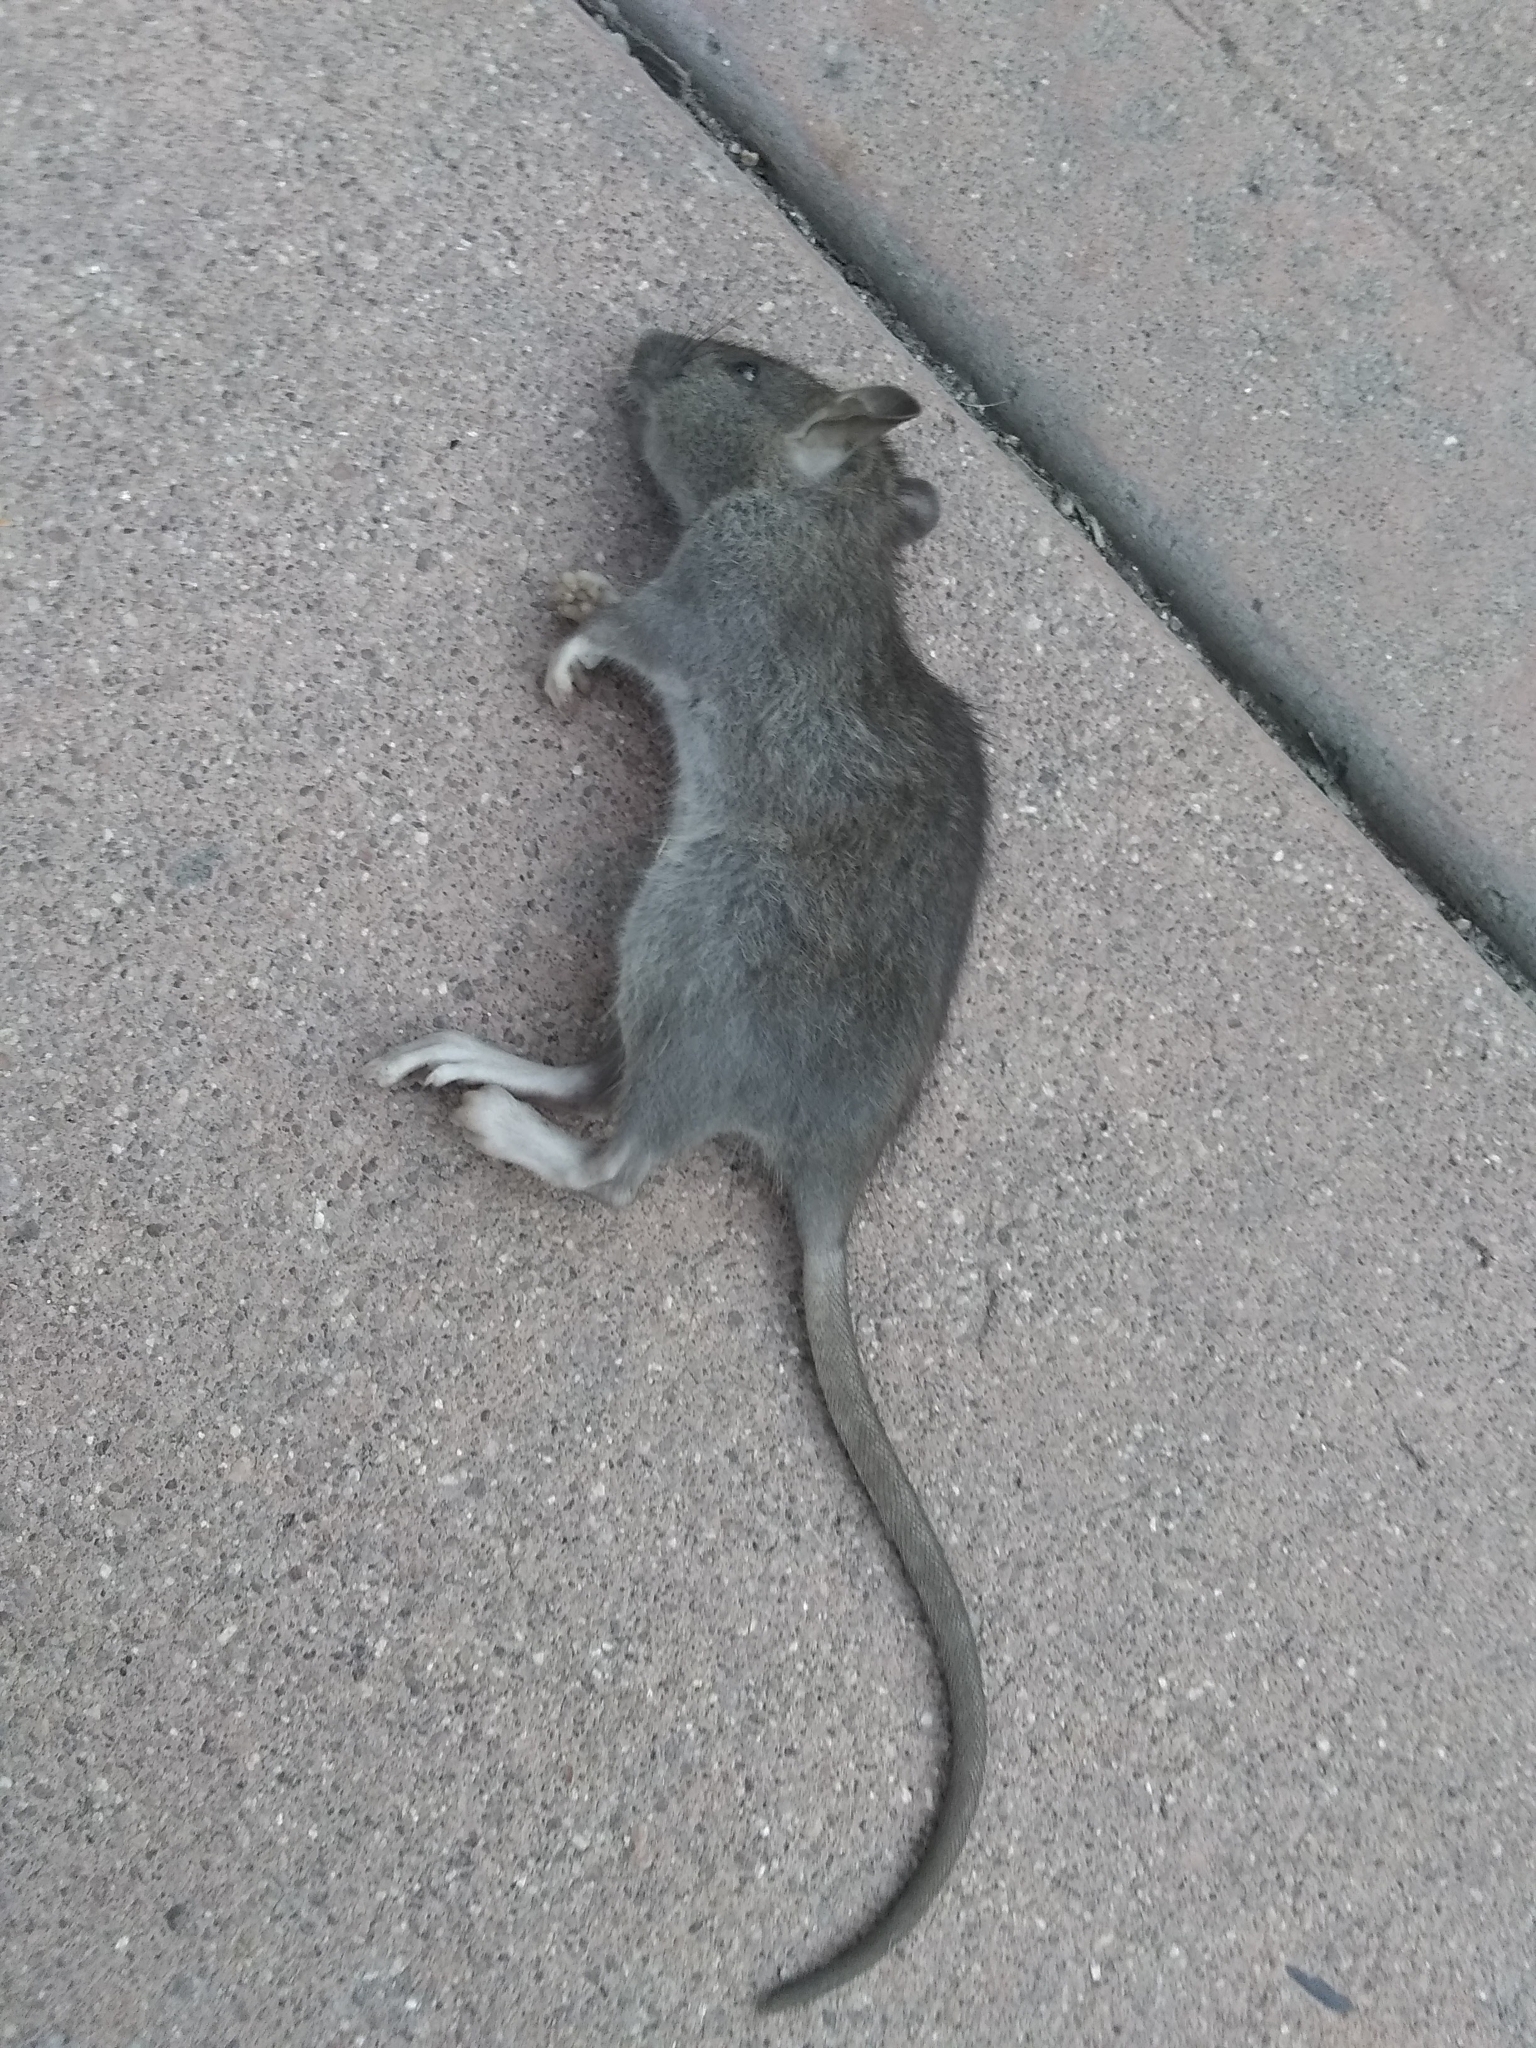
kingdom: Animalia
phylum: Chordata
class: Mammalia
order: Rodentia
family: Muridae
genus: Rattus
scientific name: Rattus rattus
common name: Black rat
